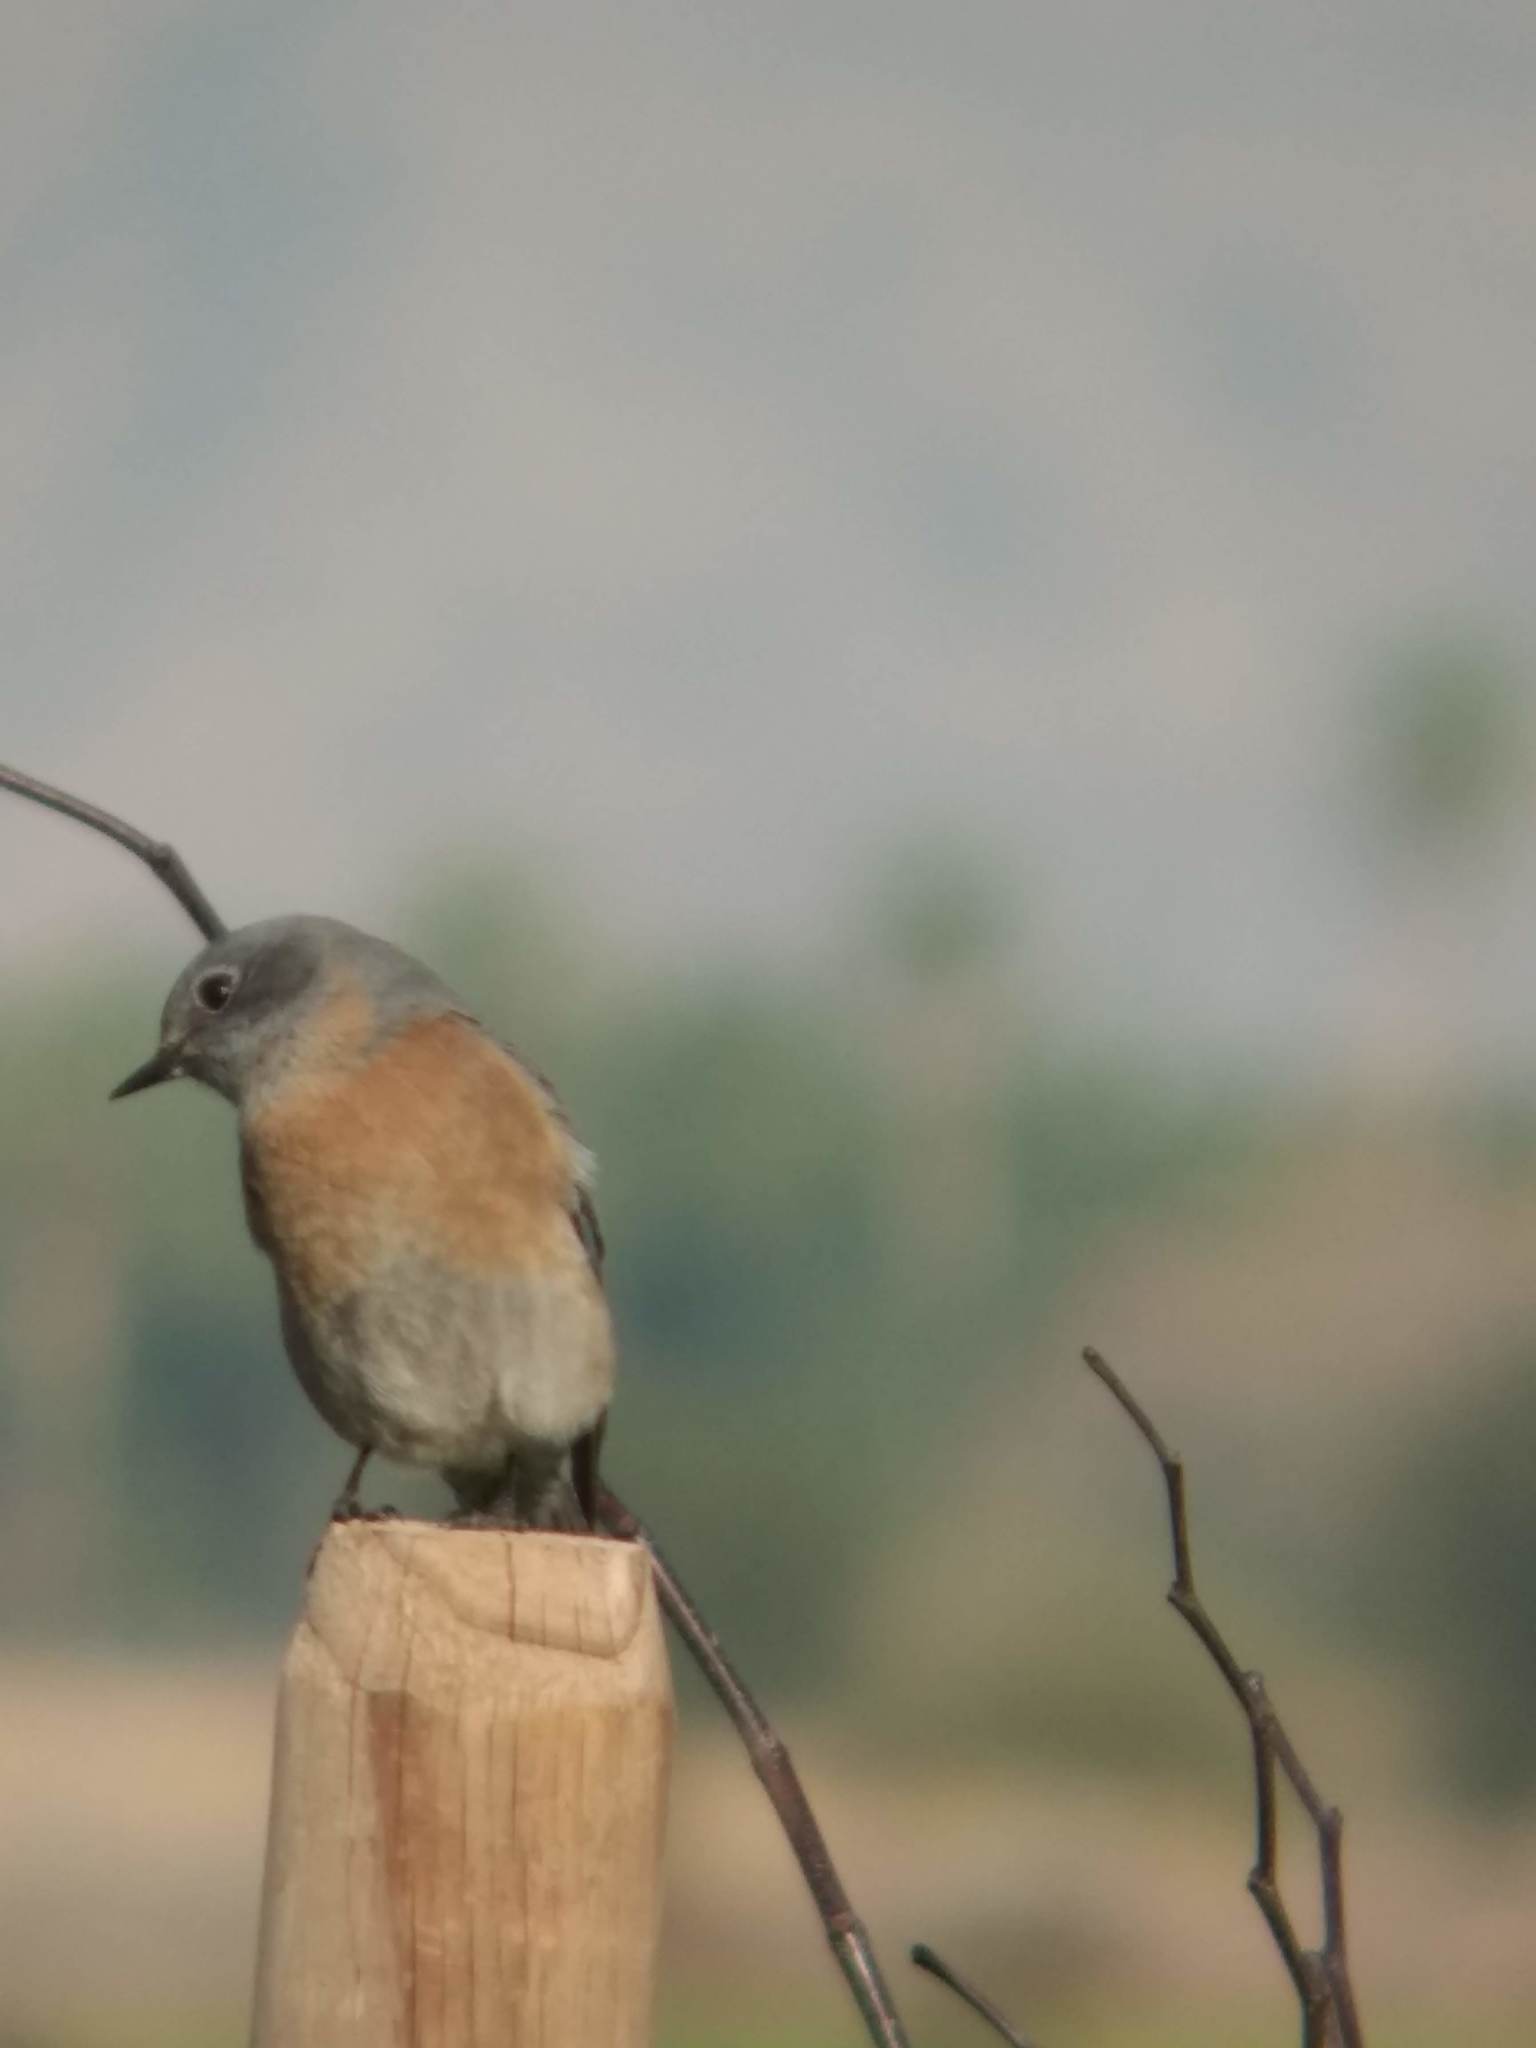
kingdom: Animalia
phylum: Chordata
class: Aves
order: Passeriformes
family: Turdidae
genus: Sialia
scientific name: Sialia mexicana
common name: Western bluebird
